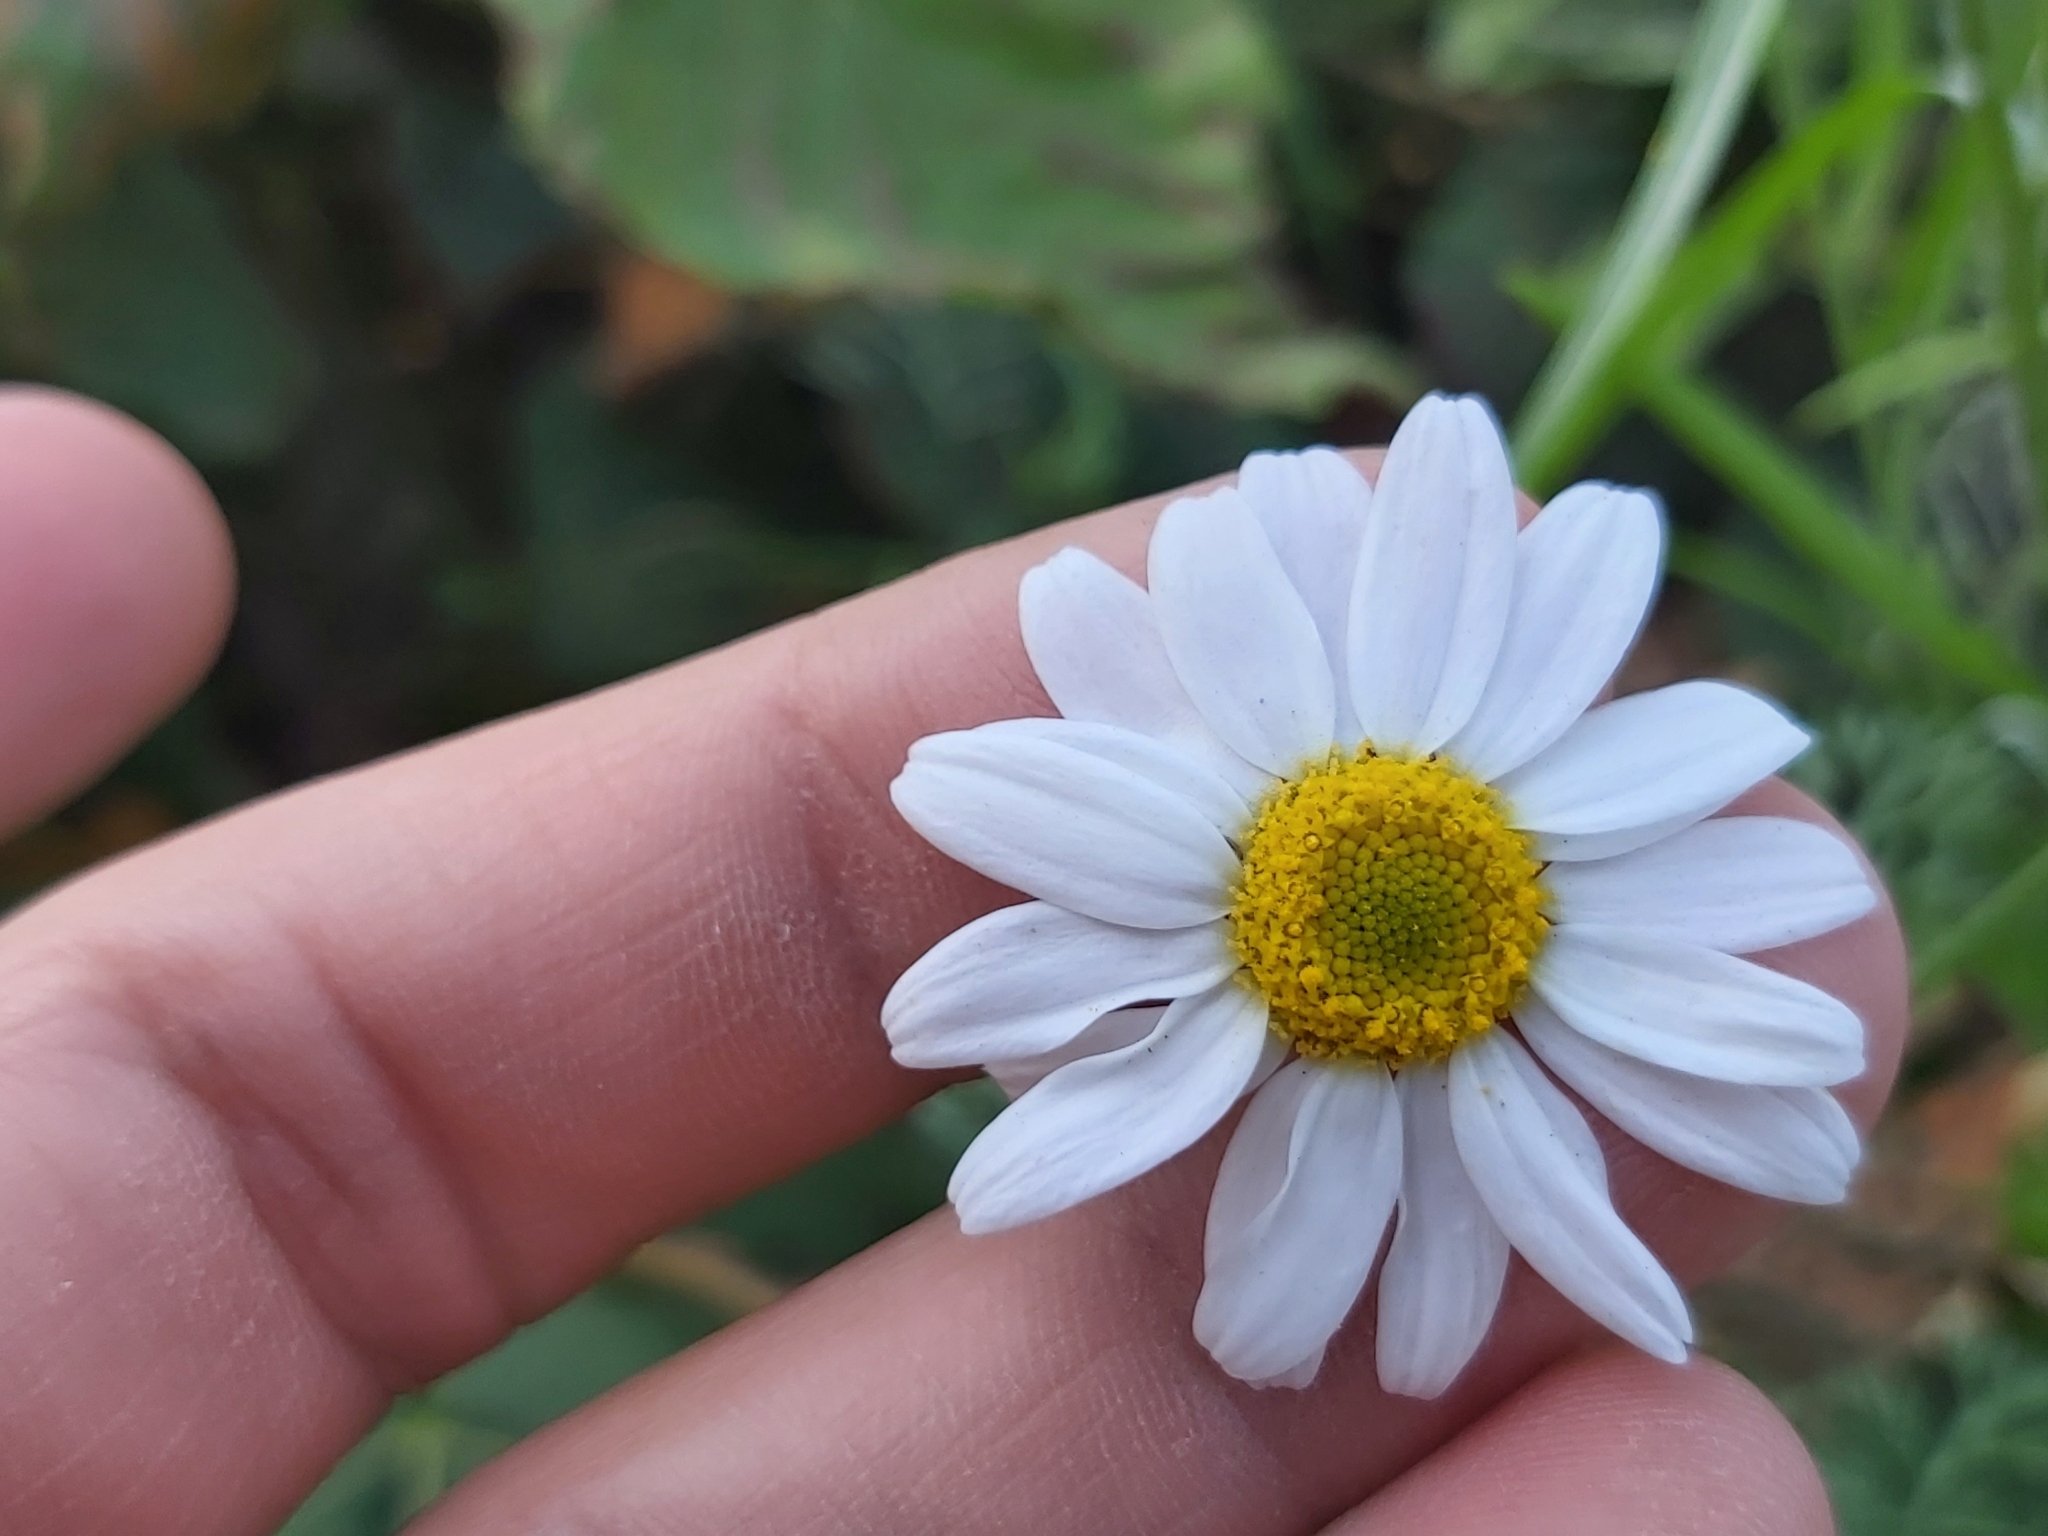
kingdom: Plantae
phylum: Tracheophyta
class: Magnoliopsida
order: Asterales
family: Asteraceae
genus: Anthemis
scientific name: Anthemis arvensis
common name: Corn chamomile
